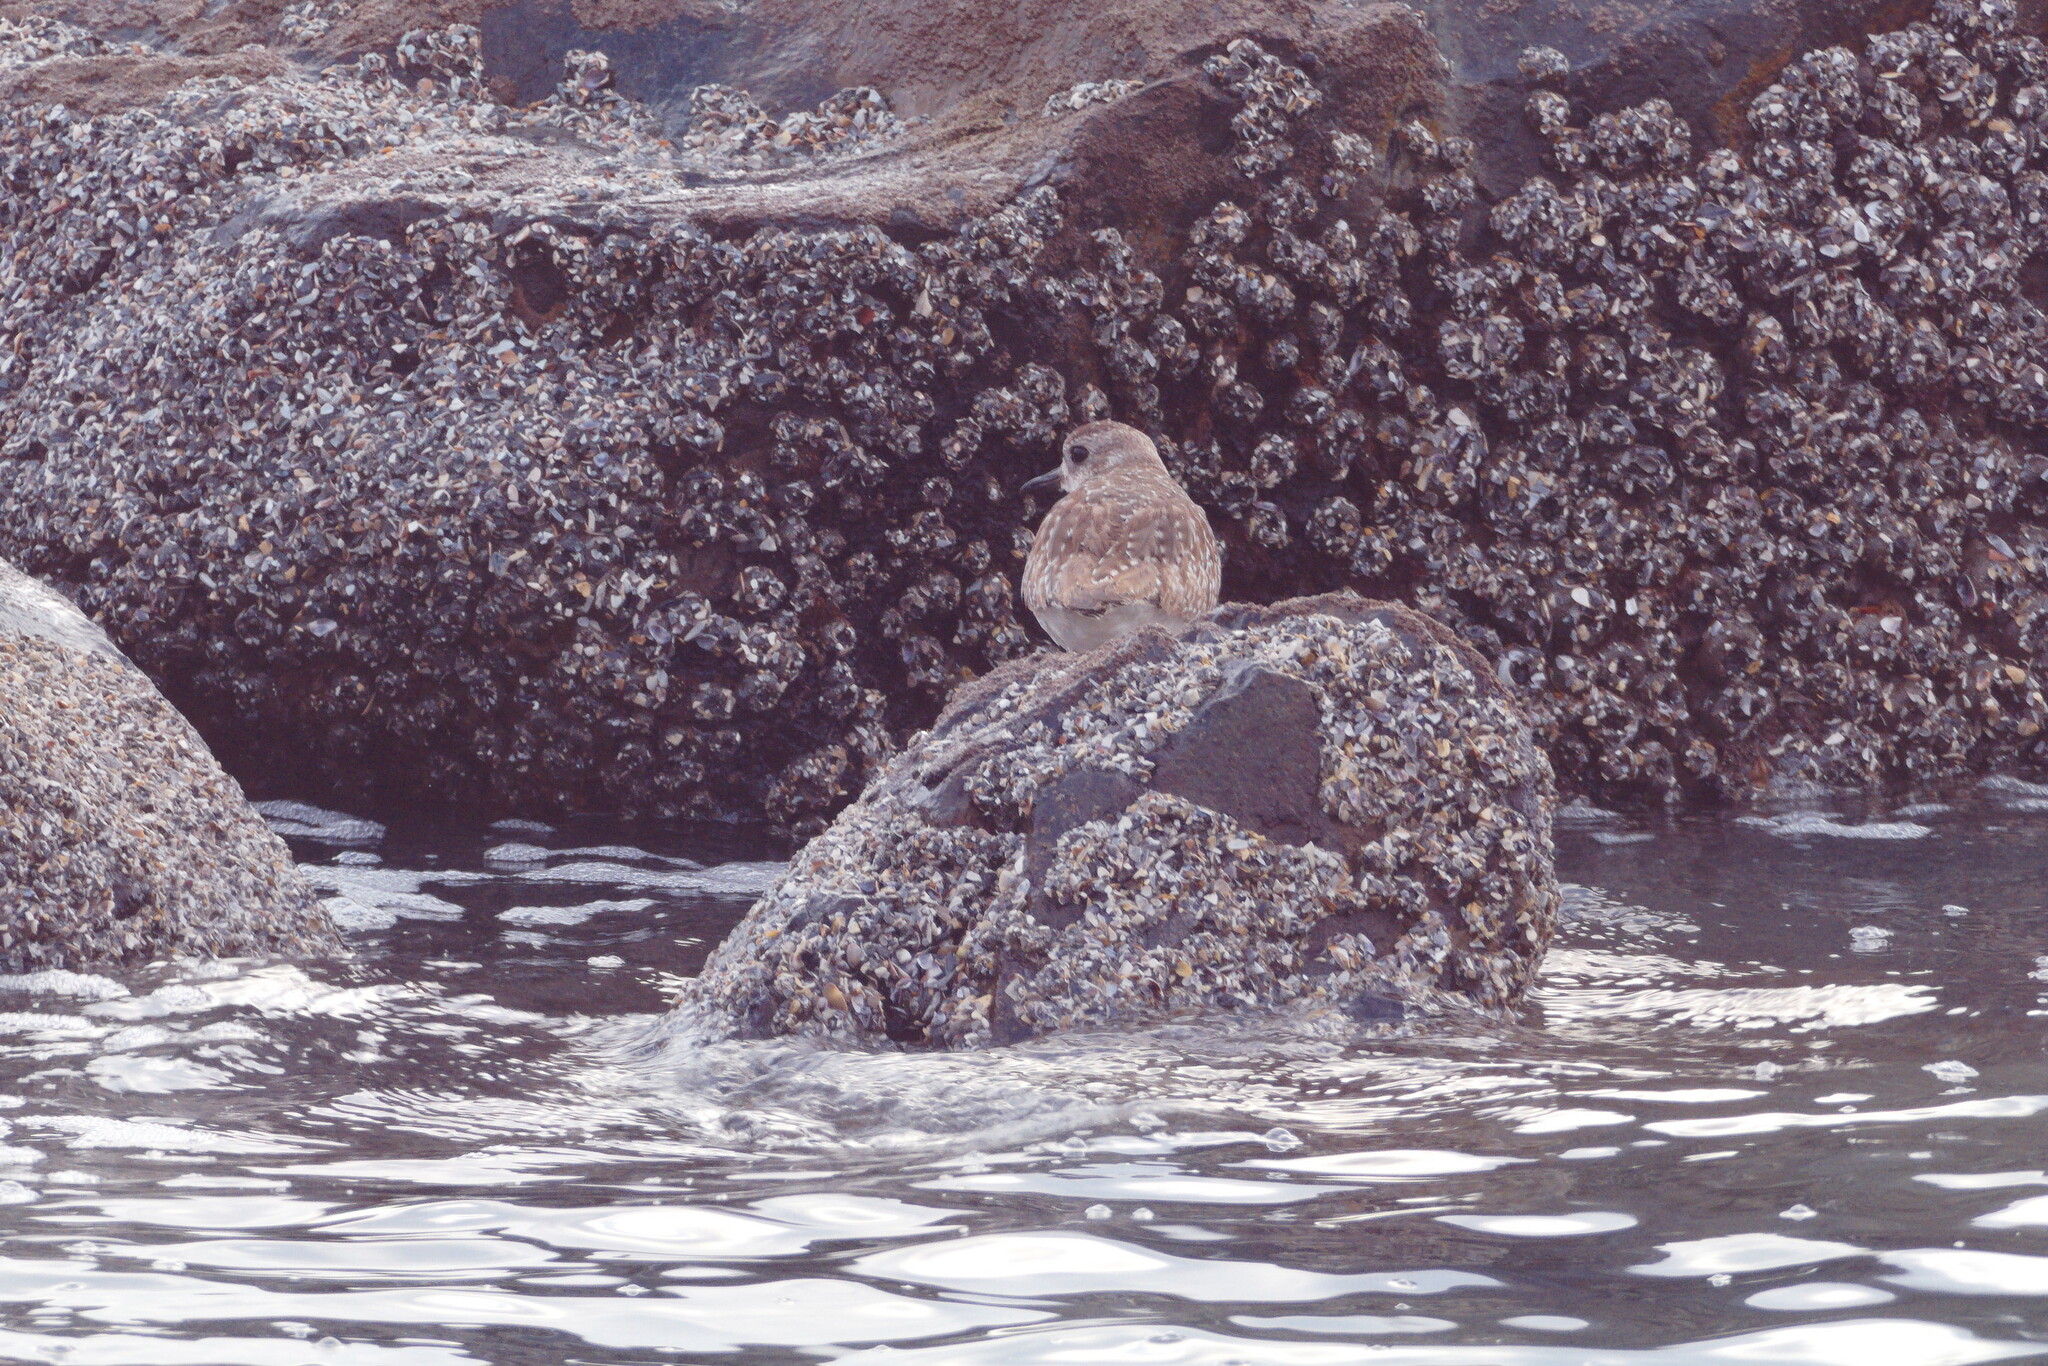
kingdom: Animalia
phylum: Chordata
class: Aves
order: Charadriiformes
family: Charadriidae
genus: Pluvialis
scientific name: Pluvialis squatarola
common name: Grey plover
